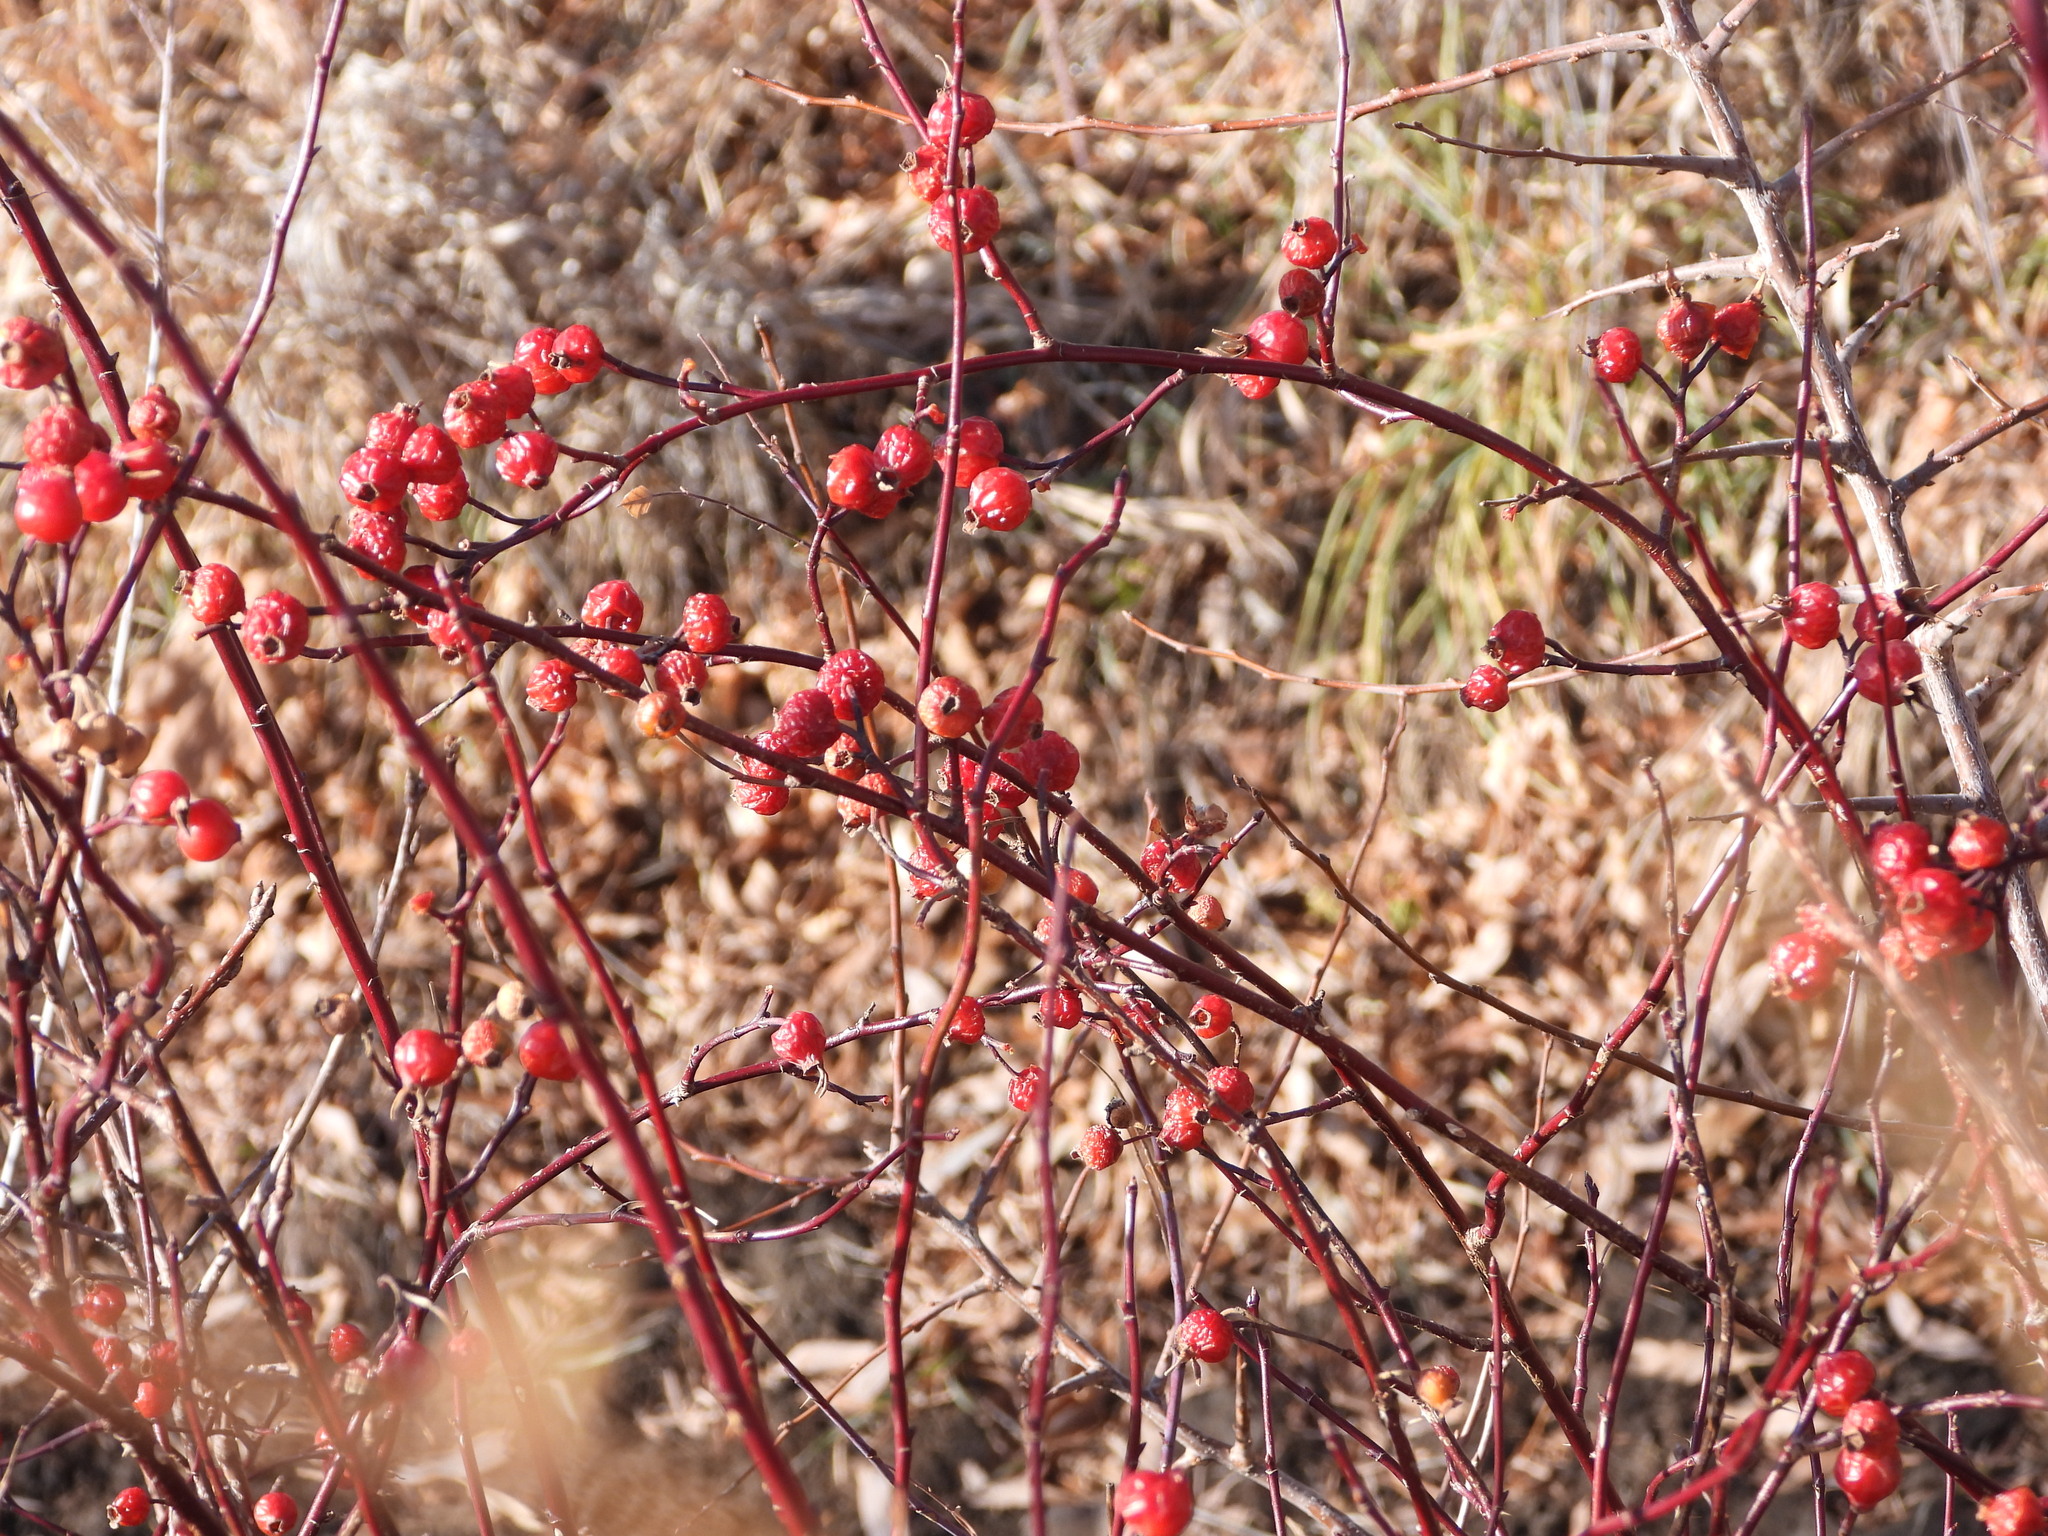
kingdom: Plantae
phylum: Tracheophyta
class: Magnoliopsida
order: Rosales
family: Rosaceae
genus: Rosa
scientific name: Rosa woodsii
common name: Woods's rose
